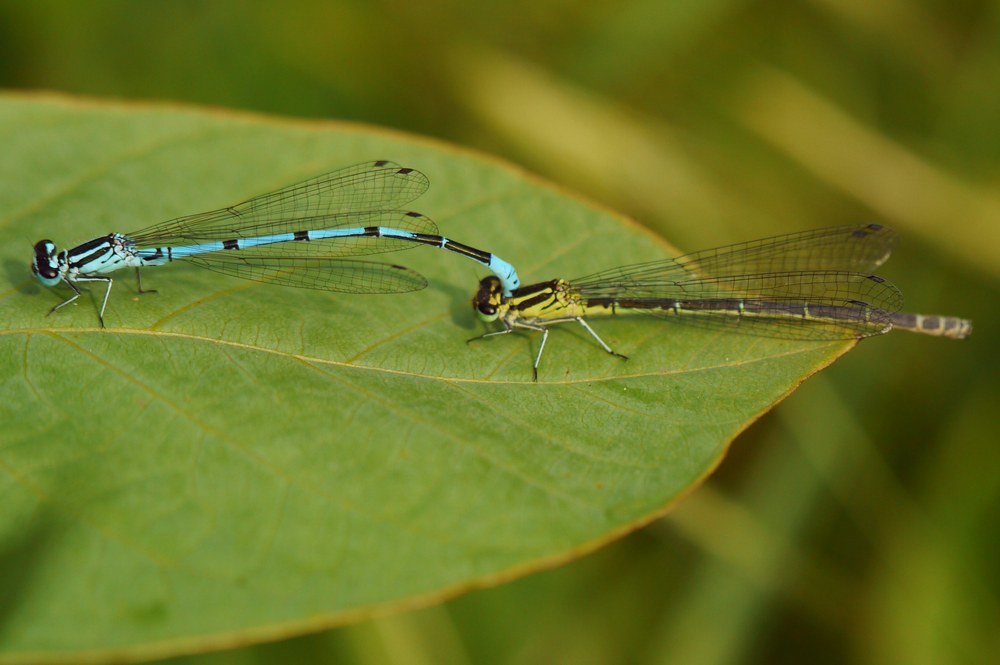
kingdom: Animalia
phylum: Arthropoda
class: Insecta
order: Odonata
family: Coenagrionidae
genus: Coenagrion
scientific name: Coenagrion puella
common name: Azure damselfly
